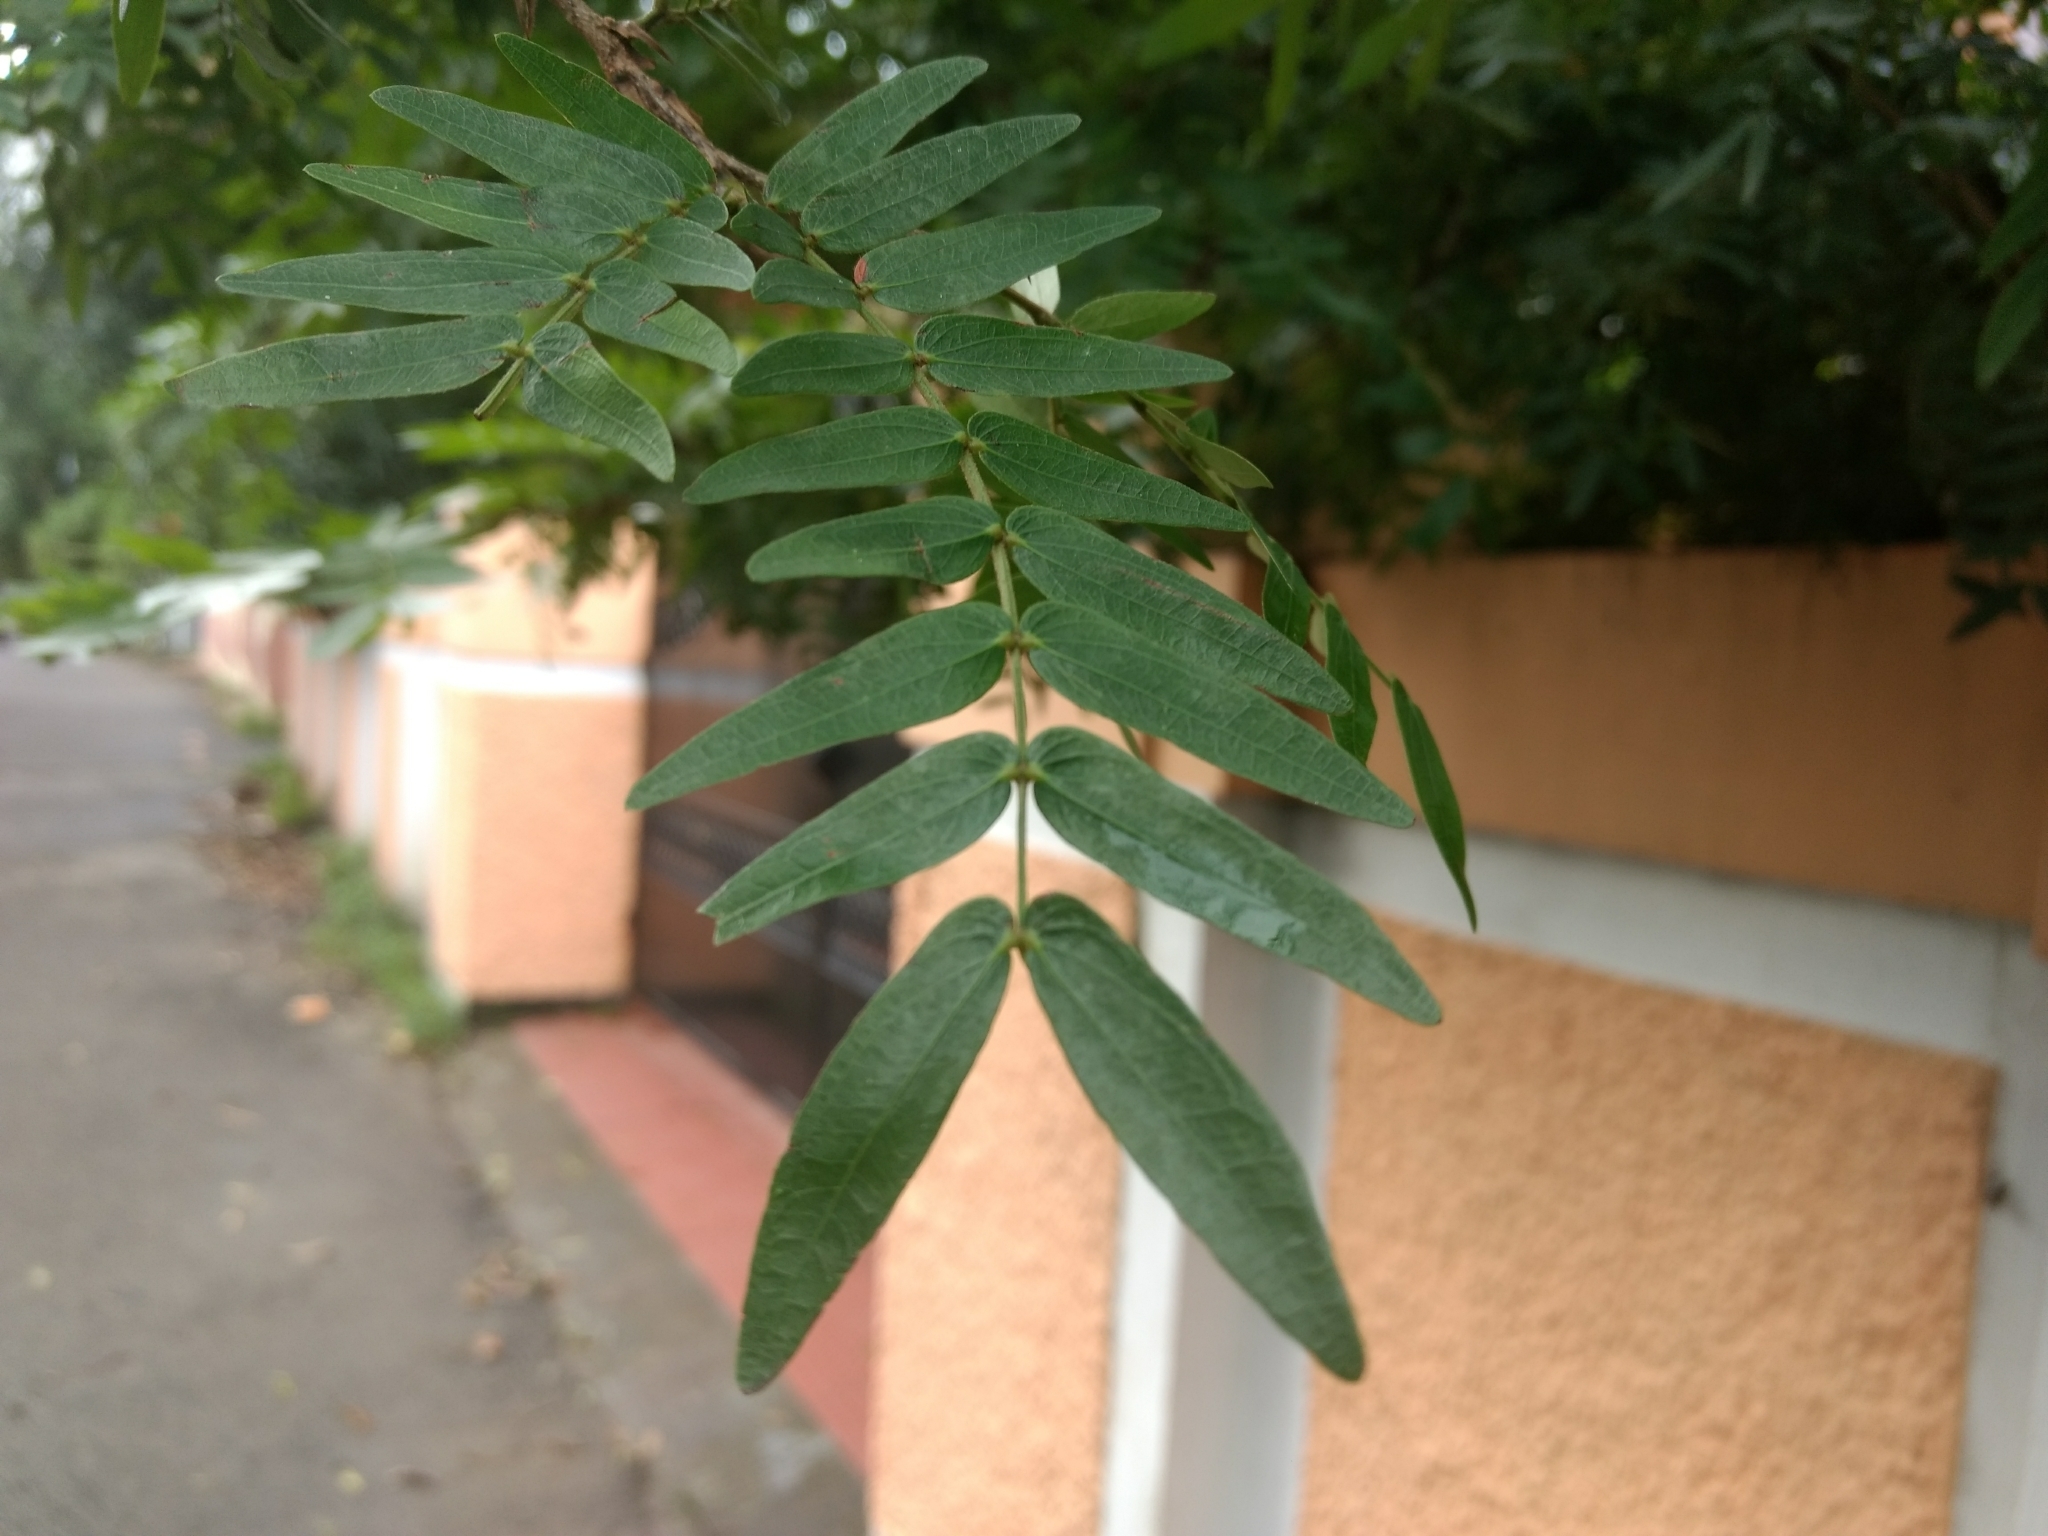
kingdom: Plantae
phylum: Tracheophyta
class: Magnoliopsida
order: Fabales
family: Fabaceae
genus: Calliandra
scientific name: Calliandra haematocephala
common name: Blood red tassel flower
